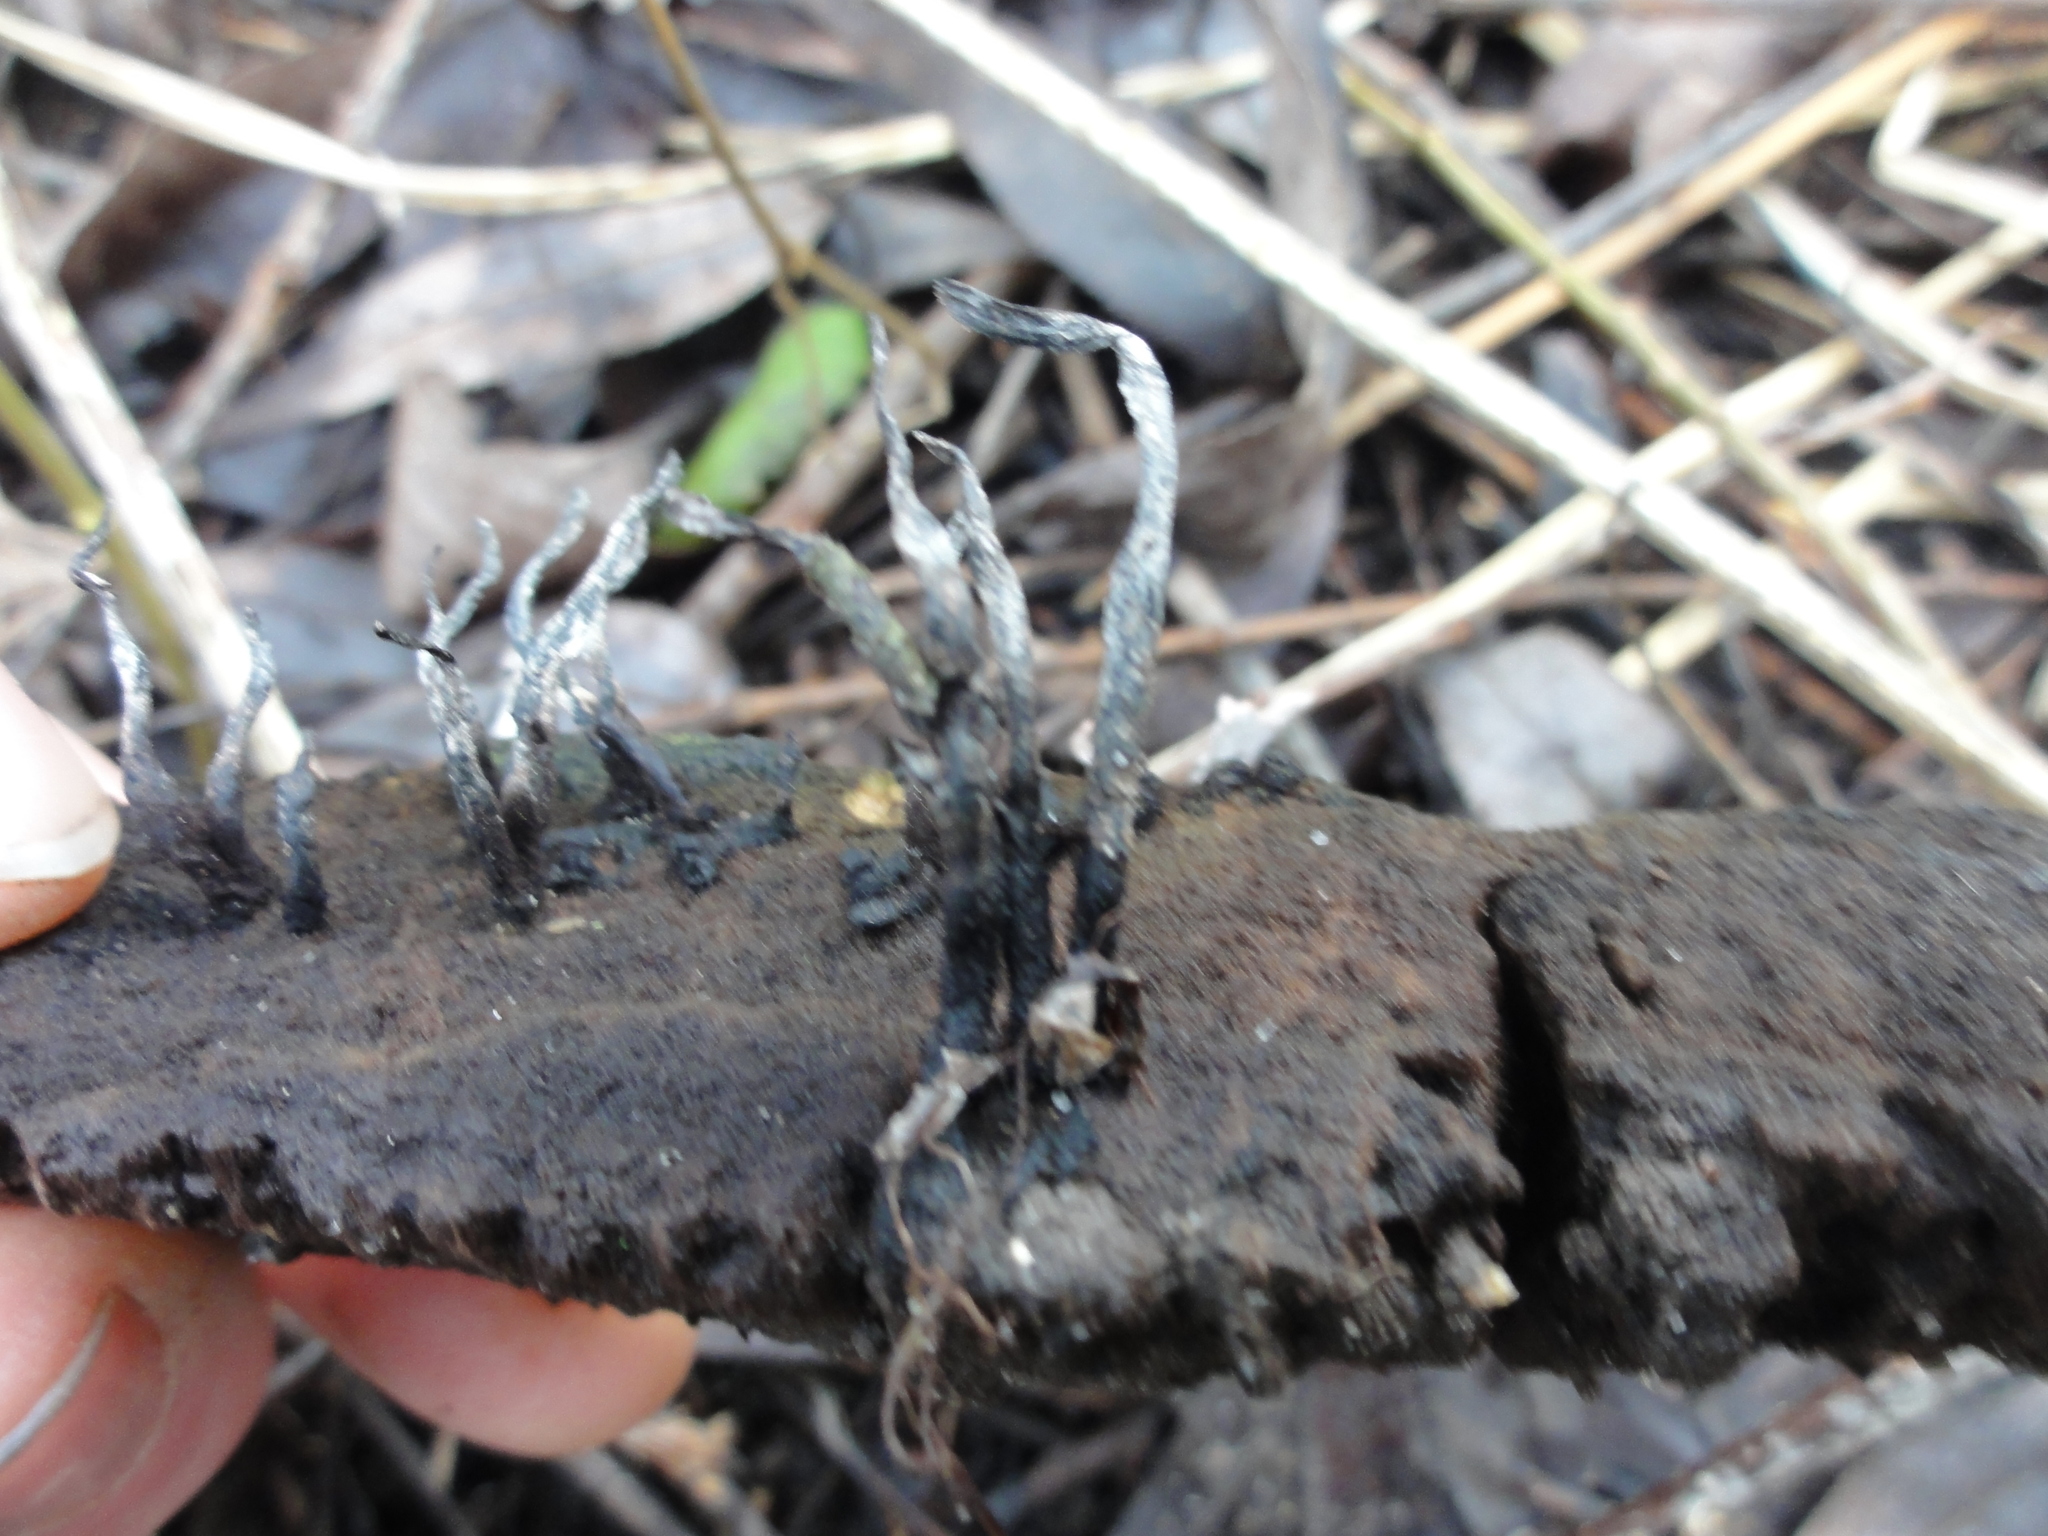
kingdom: Fungi
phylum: Ascomycota
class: Sordariomycetes
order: Xylariales
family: Xylariaceae
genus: Xylaria
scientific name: Xylaria hypoxylon
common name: Candle-snuff fungus
